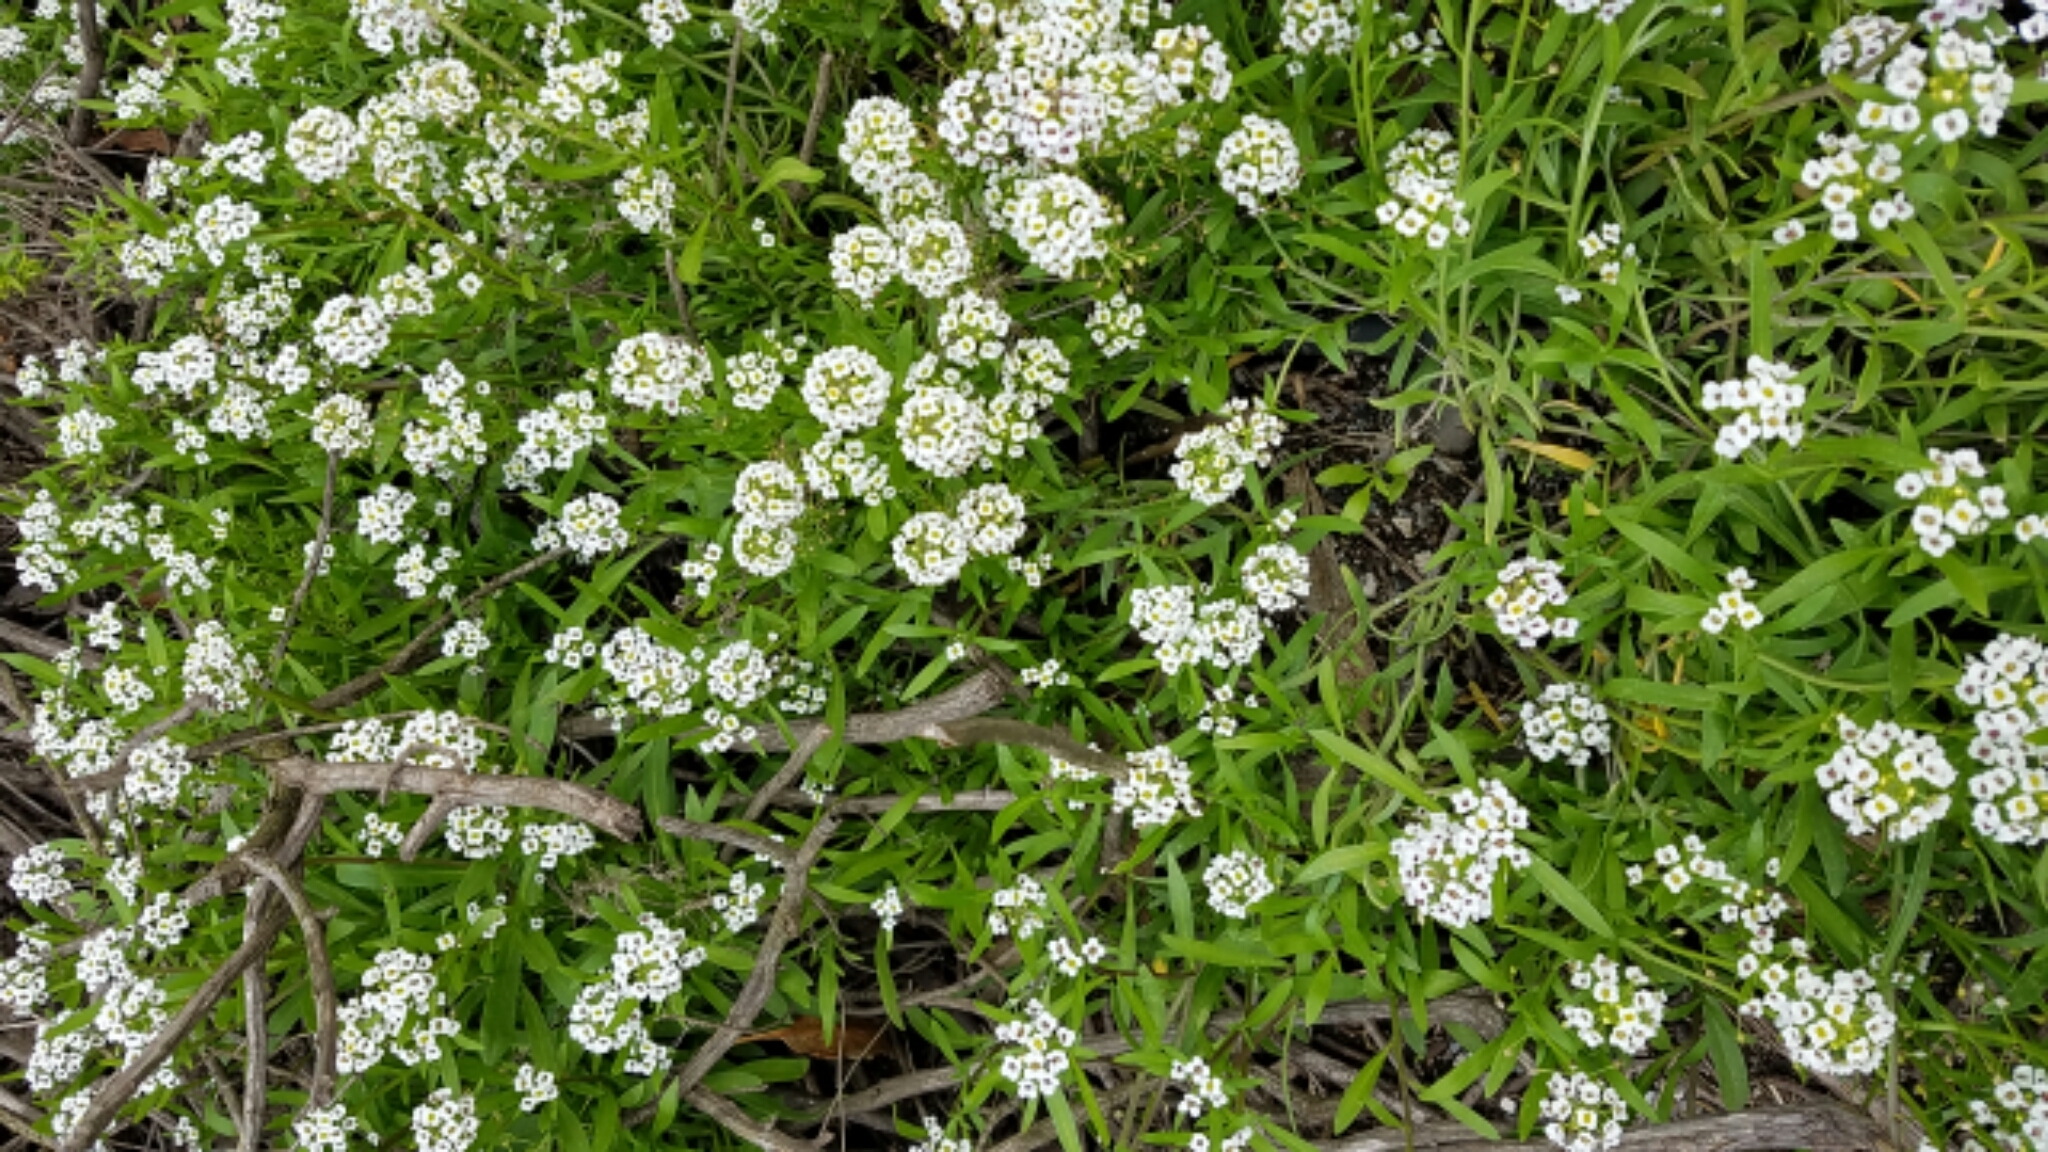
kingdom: Plantae
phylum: Tracheophyta
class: Magnoliopsida
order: Brassicales
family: Brassicaceae
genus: Lobularia
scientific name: Lobularia maritima
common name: Sweet alison
